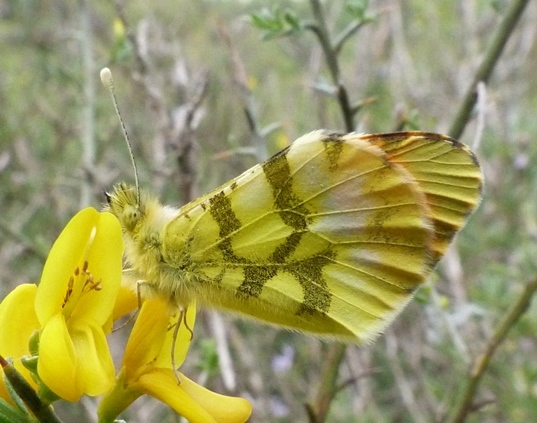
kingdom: Animalia
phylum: Arthropoda
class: Insecta
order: Lepidoptera
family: Pieridae
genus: Anthocharis
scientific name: Anthocharis euphenoides
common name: Provence orange-tip
